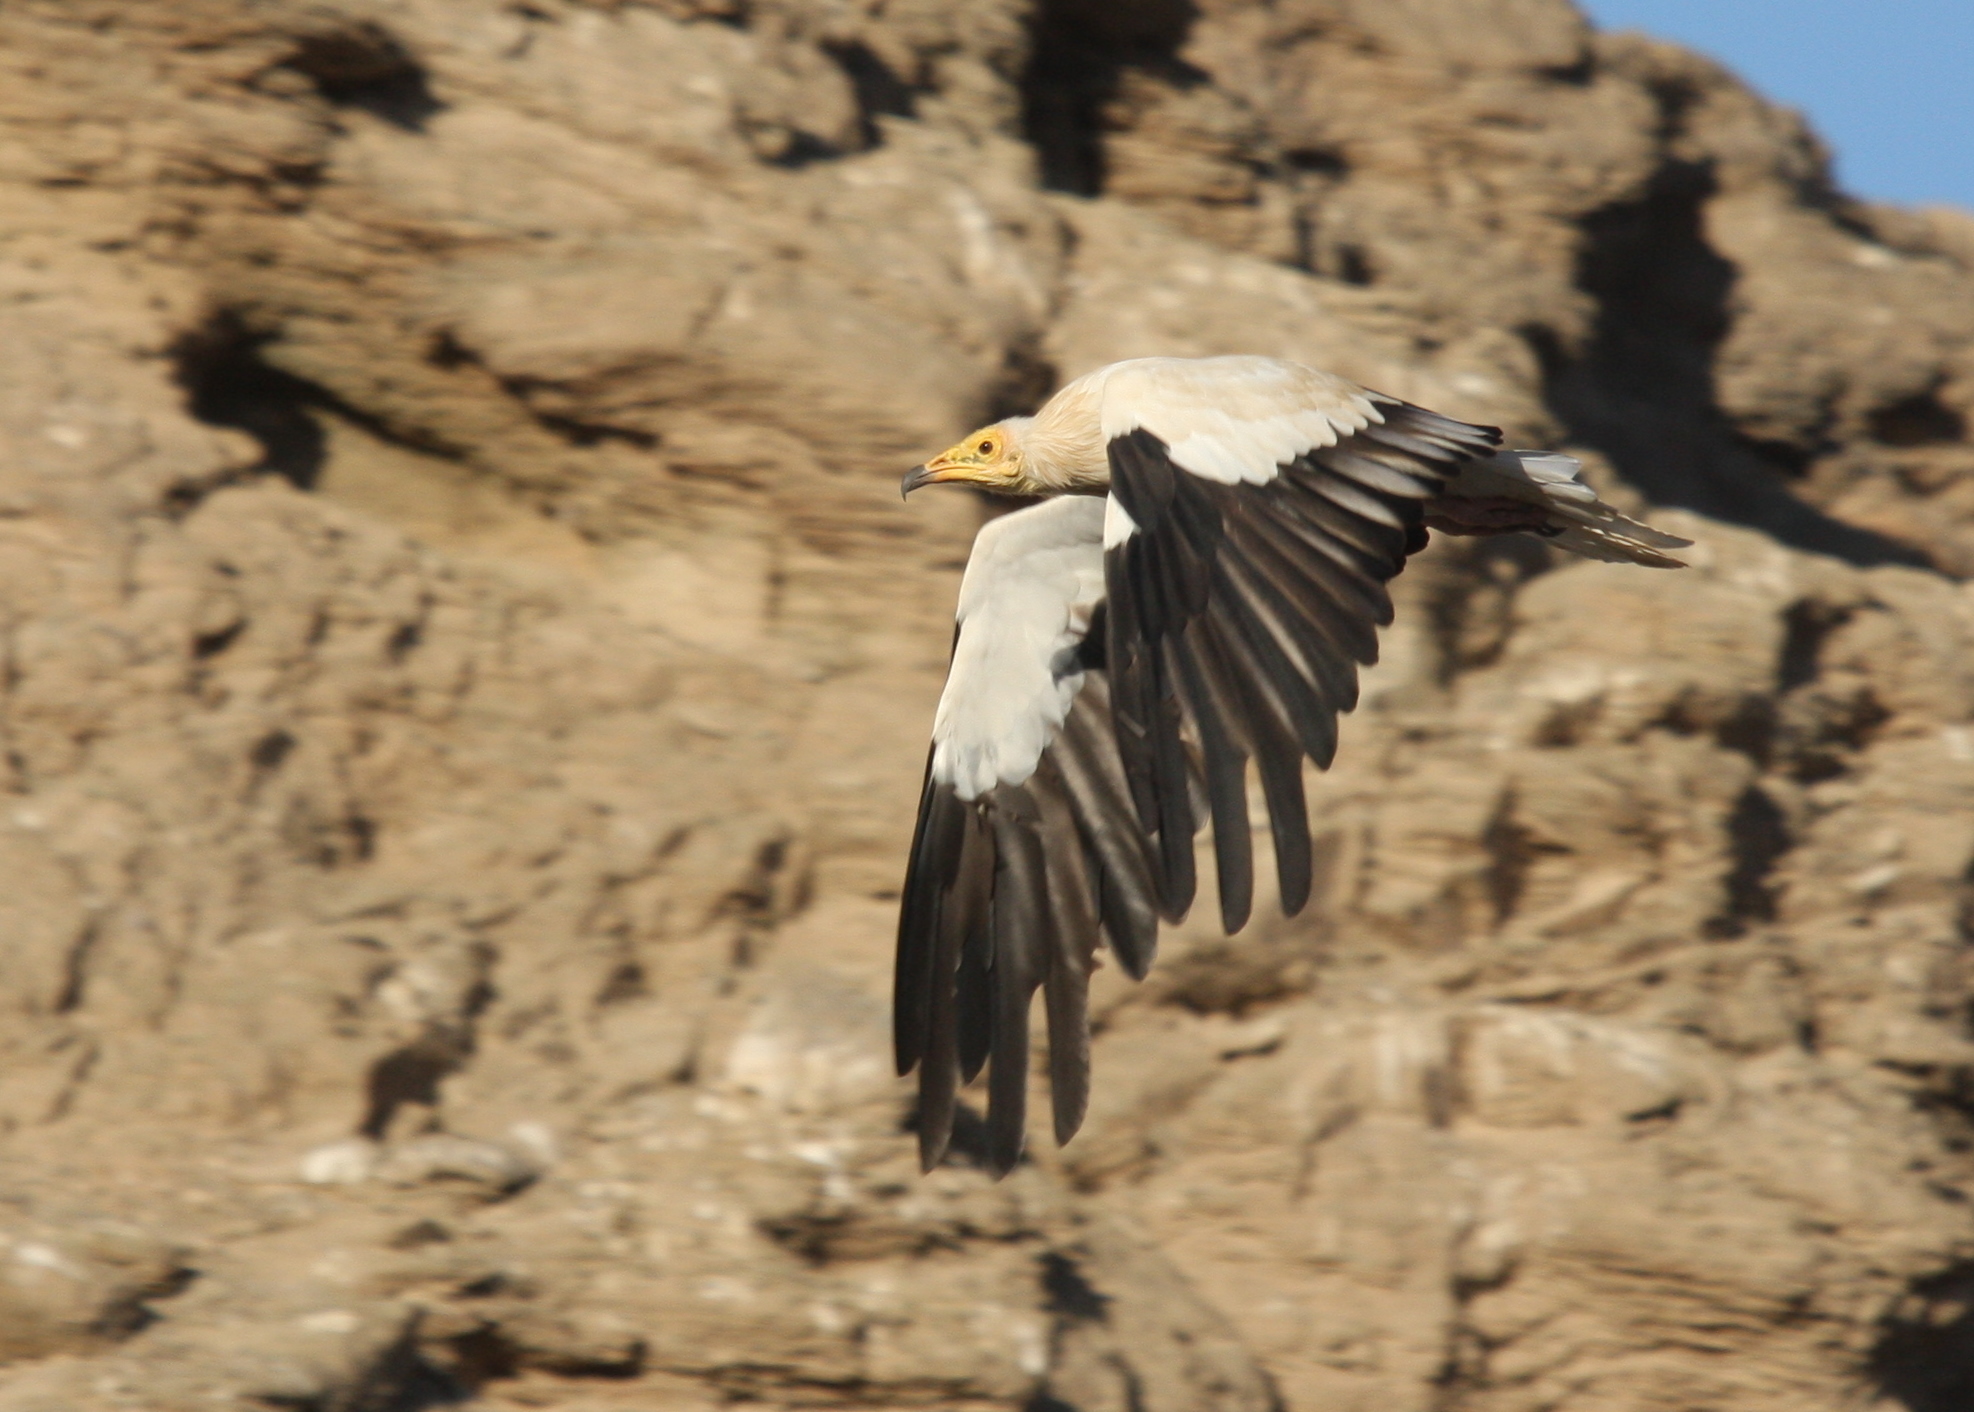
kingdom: Animalia
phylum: Chordata
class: Aves
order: Accipitriformes
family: Accipitridae
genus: Neophron
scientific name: Neophron percnopterus
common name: Egyptian vulture
